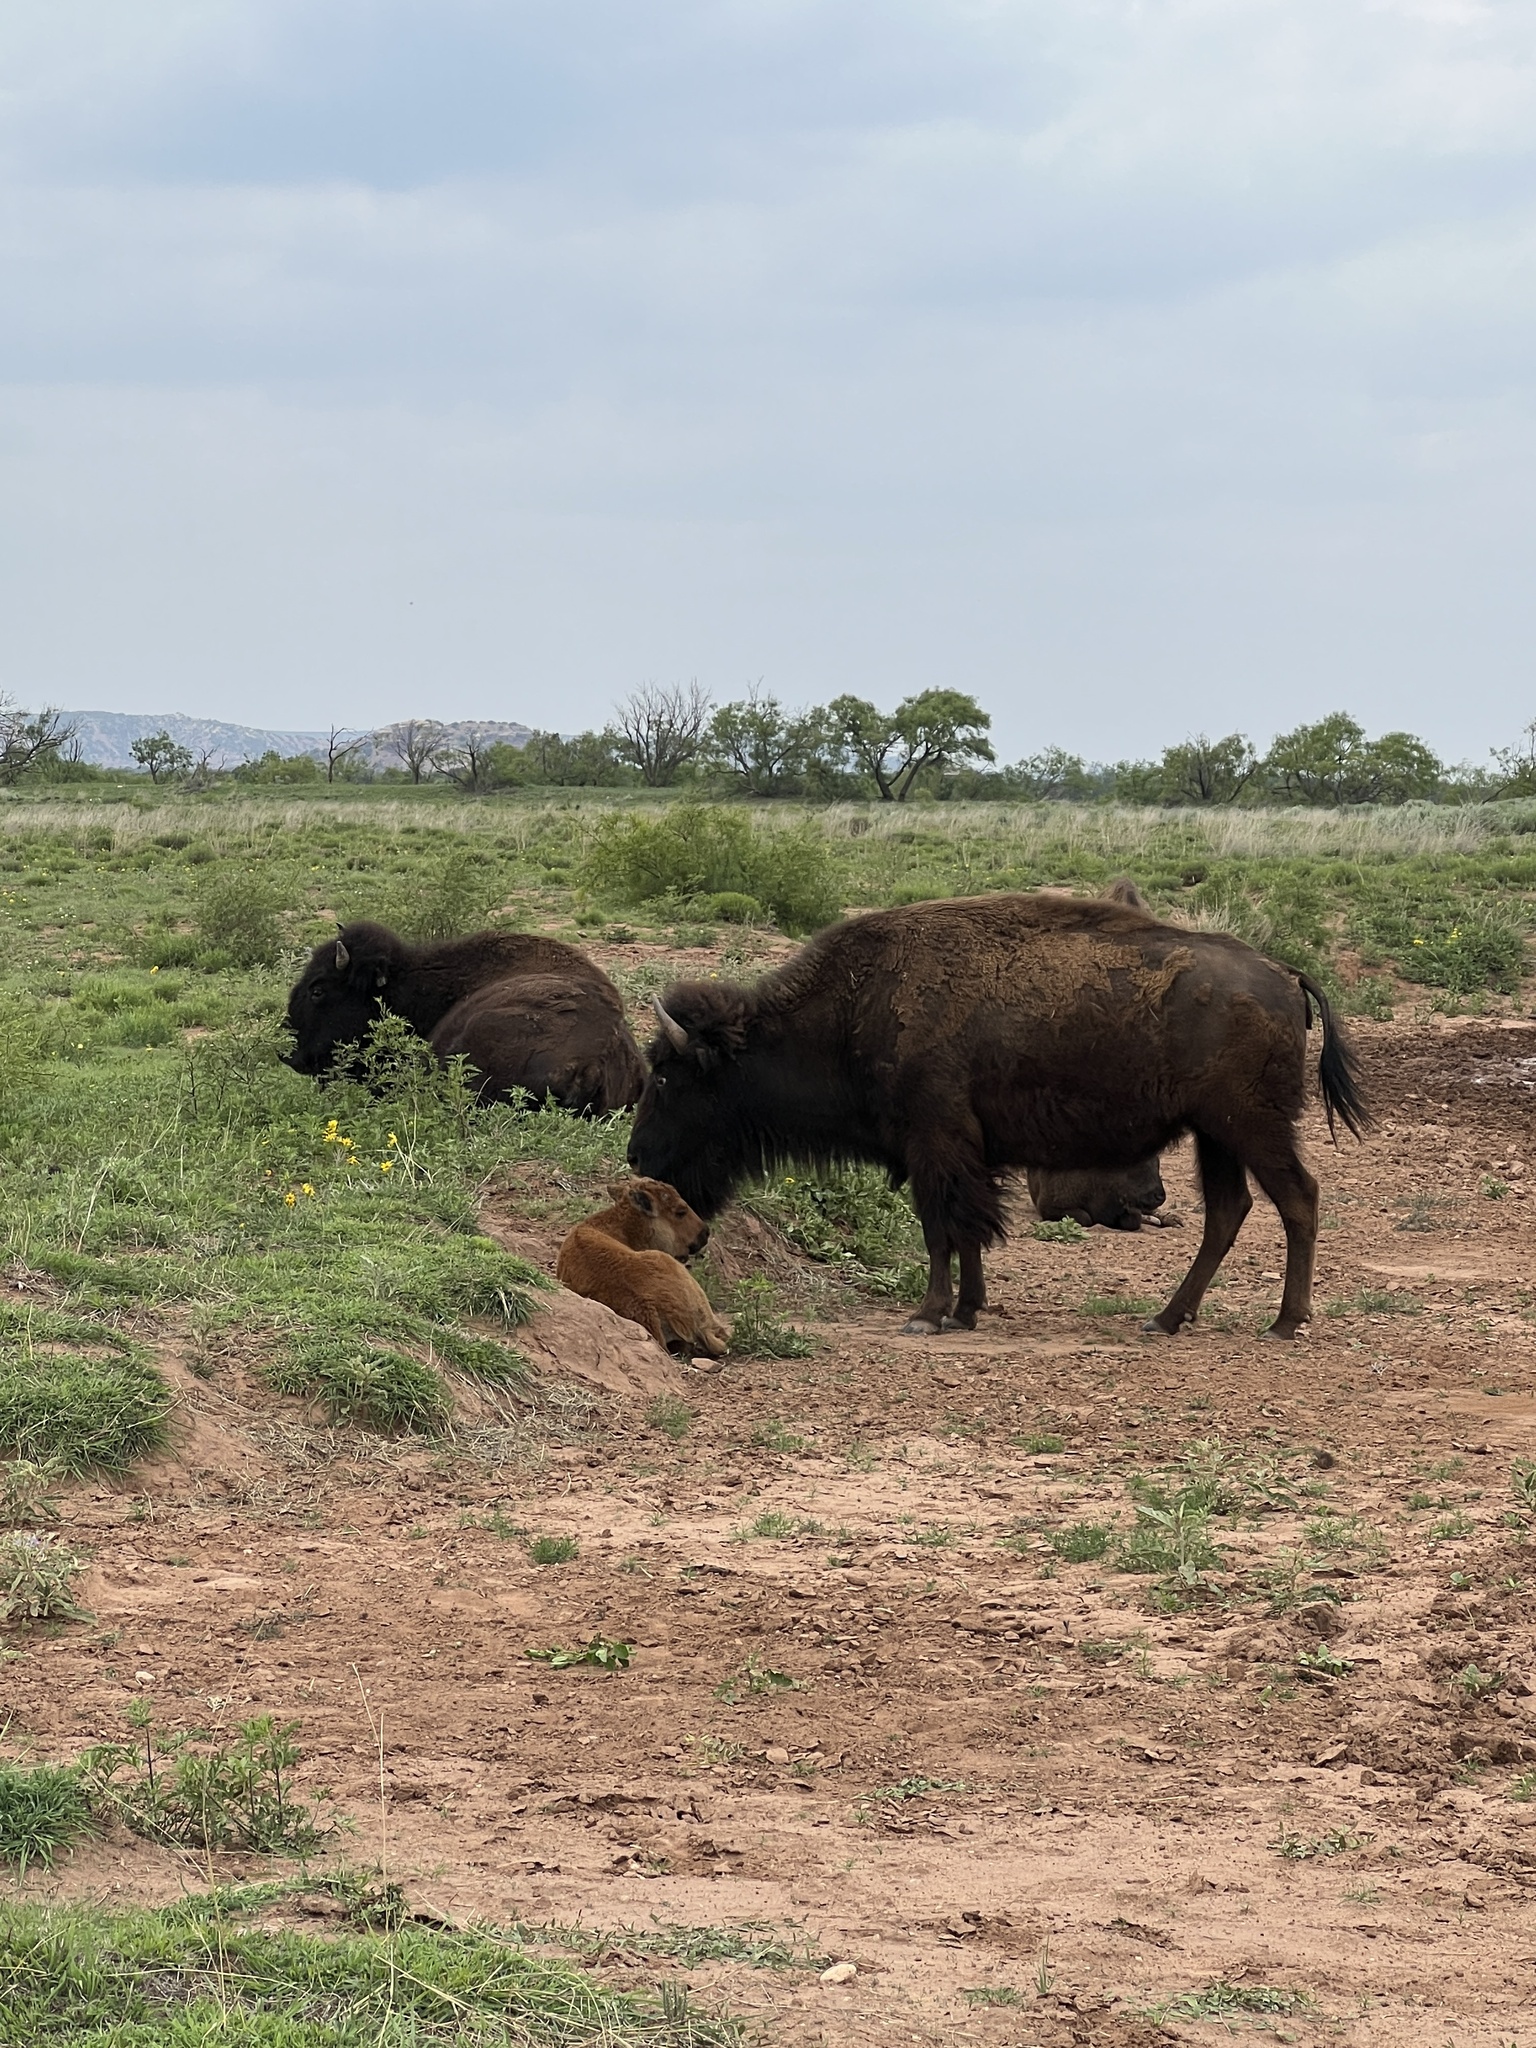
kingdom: Animalia
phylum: Chordata
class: Mammalia
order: Artiodactyla
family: Bovidae
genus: Bison
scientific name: Bison bison
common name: American bison
